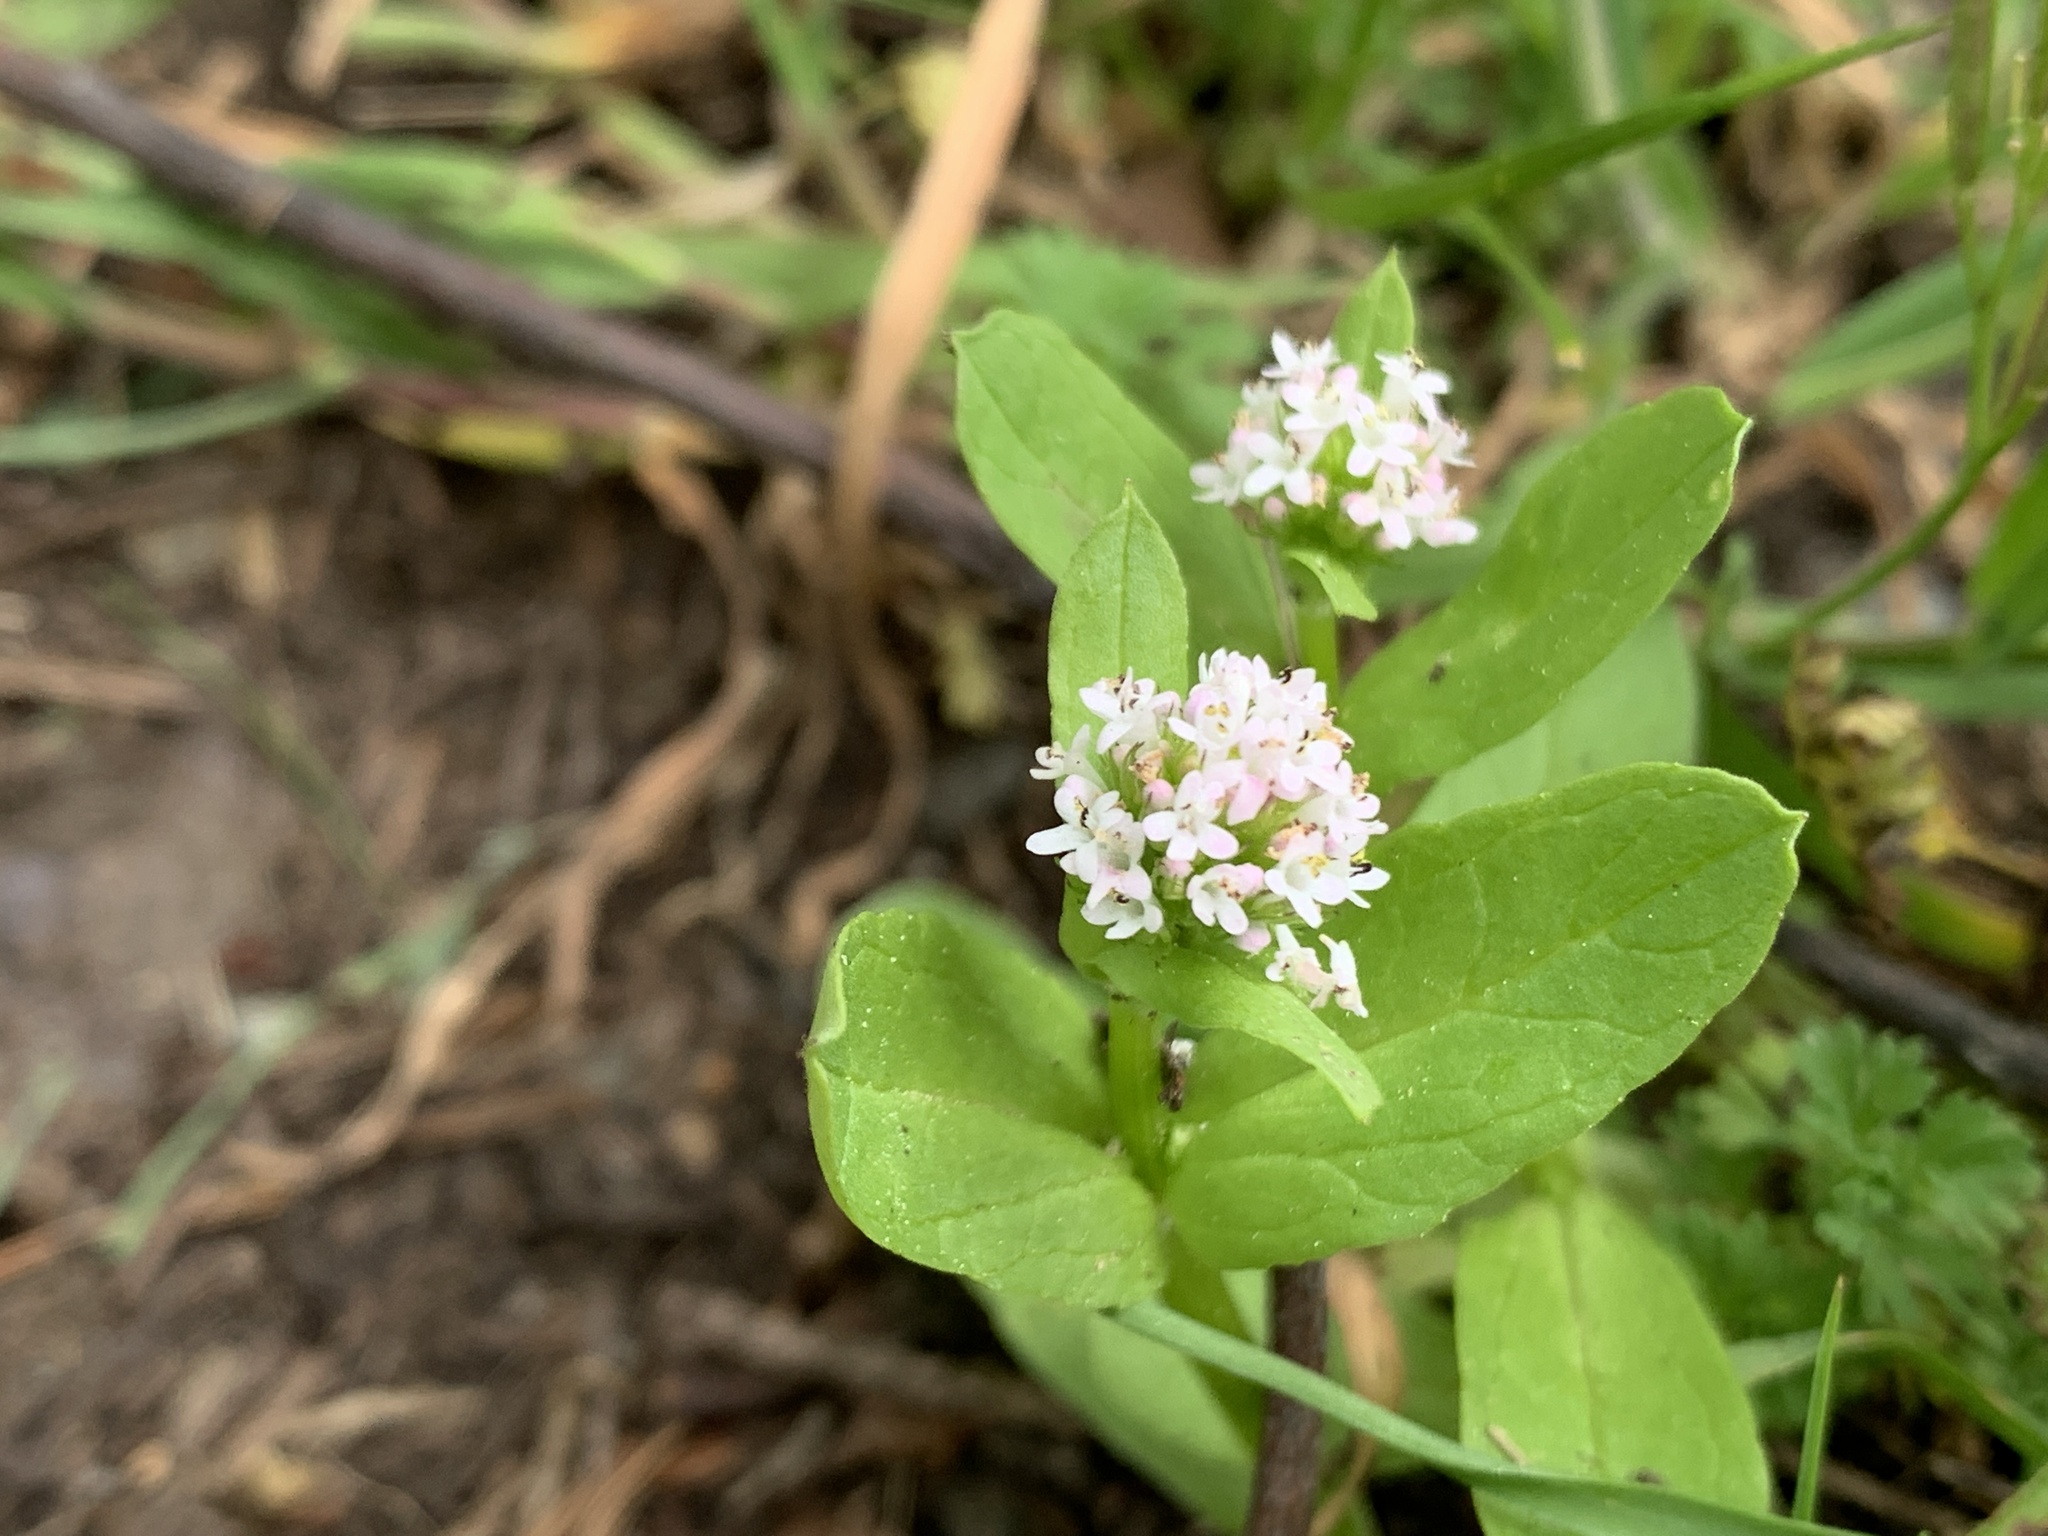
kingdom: Plantae
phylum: Tracheophyta
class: Magnoliopsida
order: Dipsacales
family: Caprifoliaceae
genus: Plectritis
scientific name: Plectritis brachystemon
